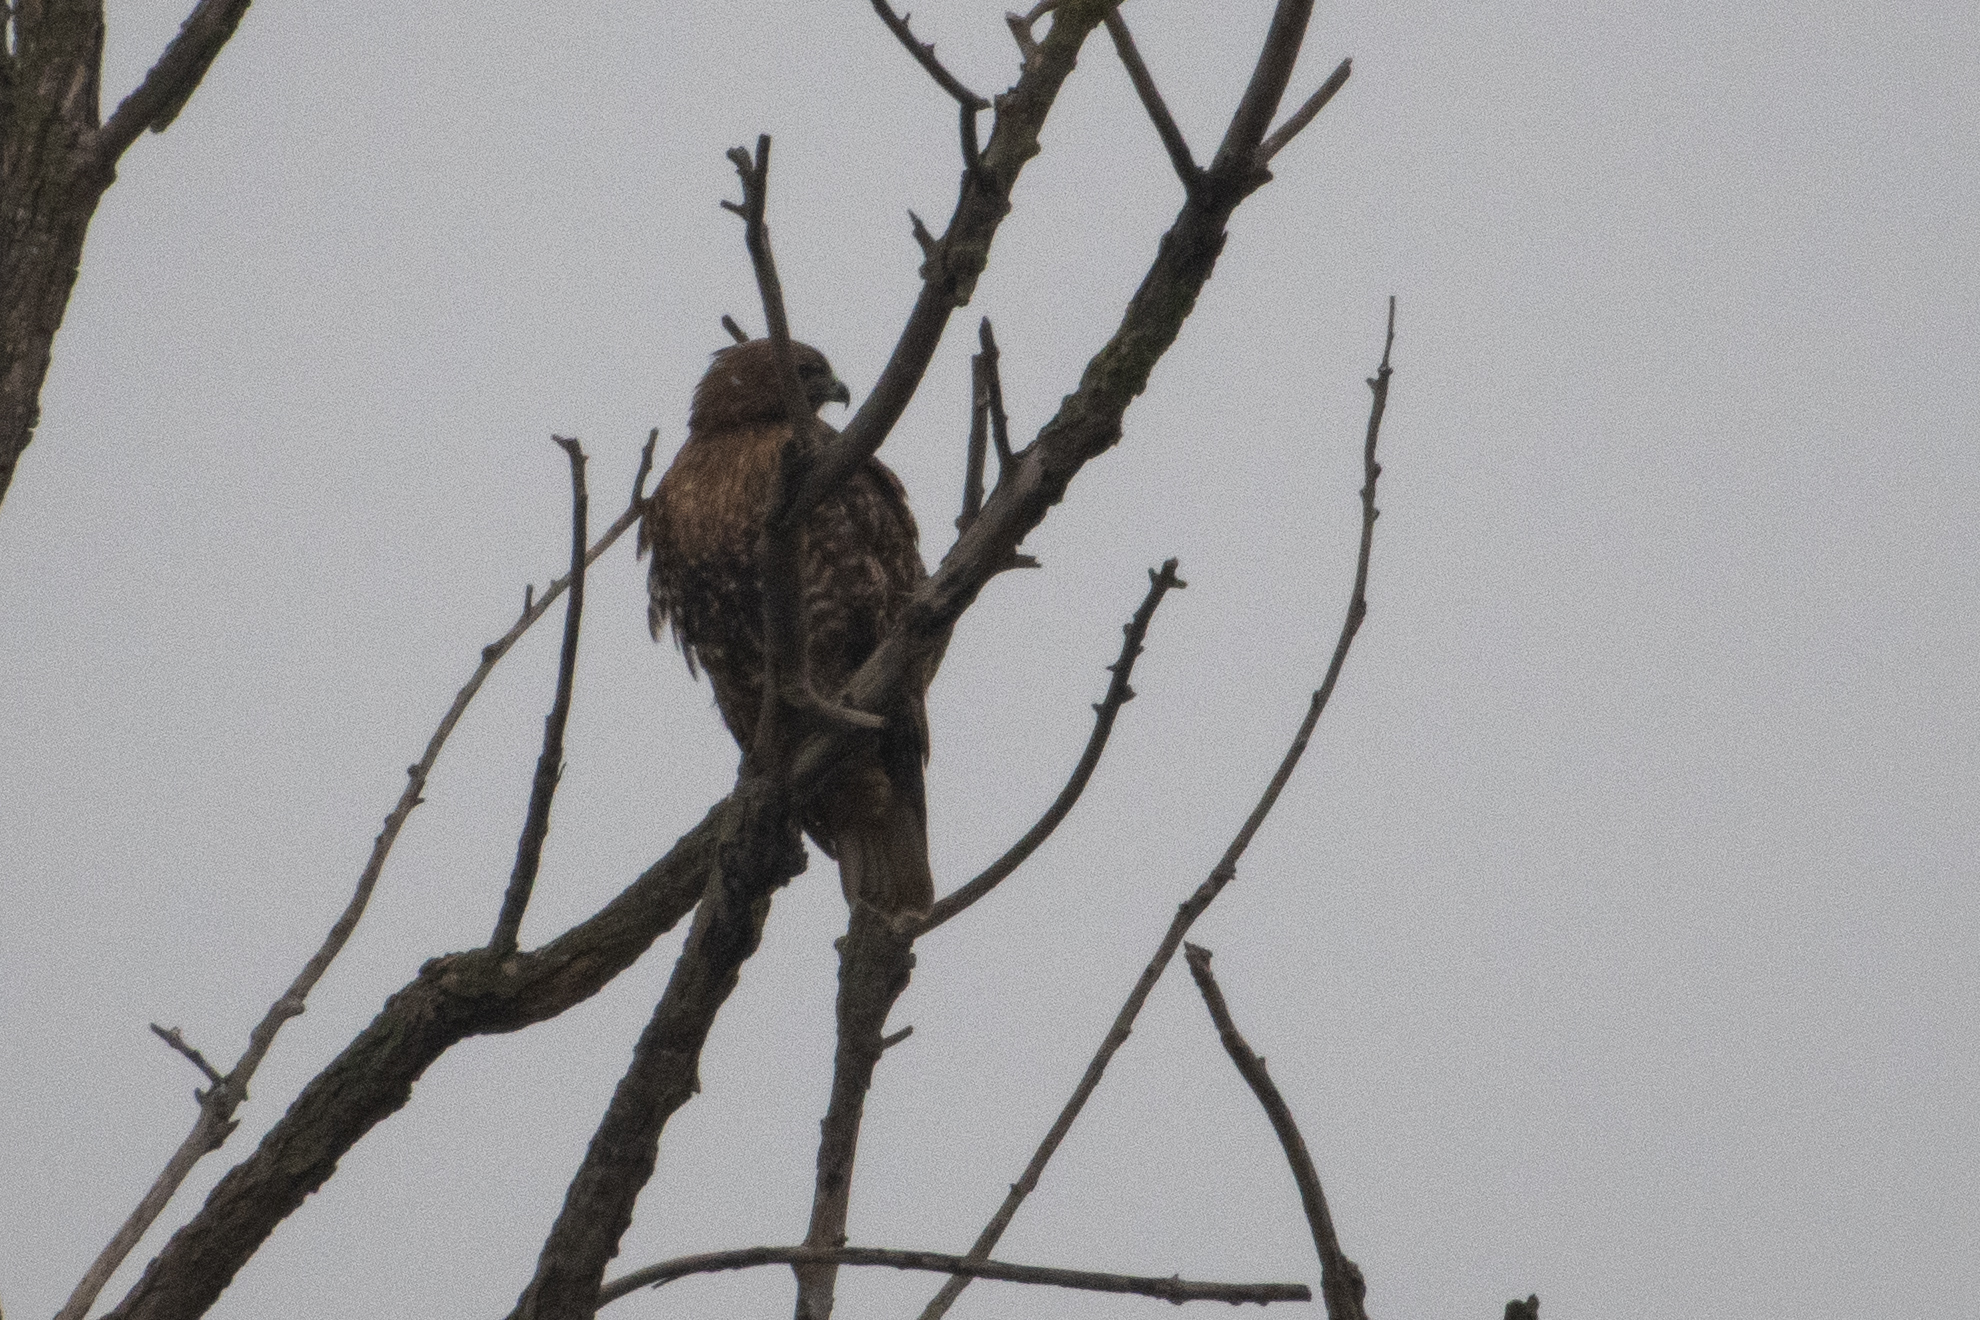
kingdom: Animalia
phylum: Chordata
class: Aves
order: Accipitriformes
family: Accipitridae
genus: Buteo
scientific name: Buteo jamaicensis
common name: Red-tailed hawk
